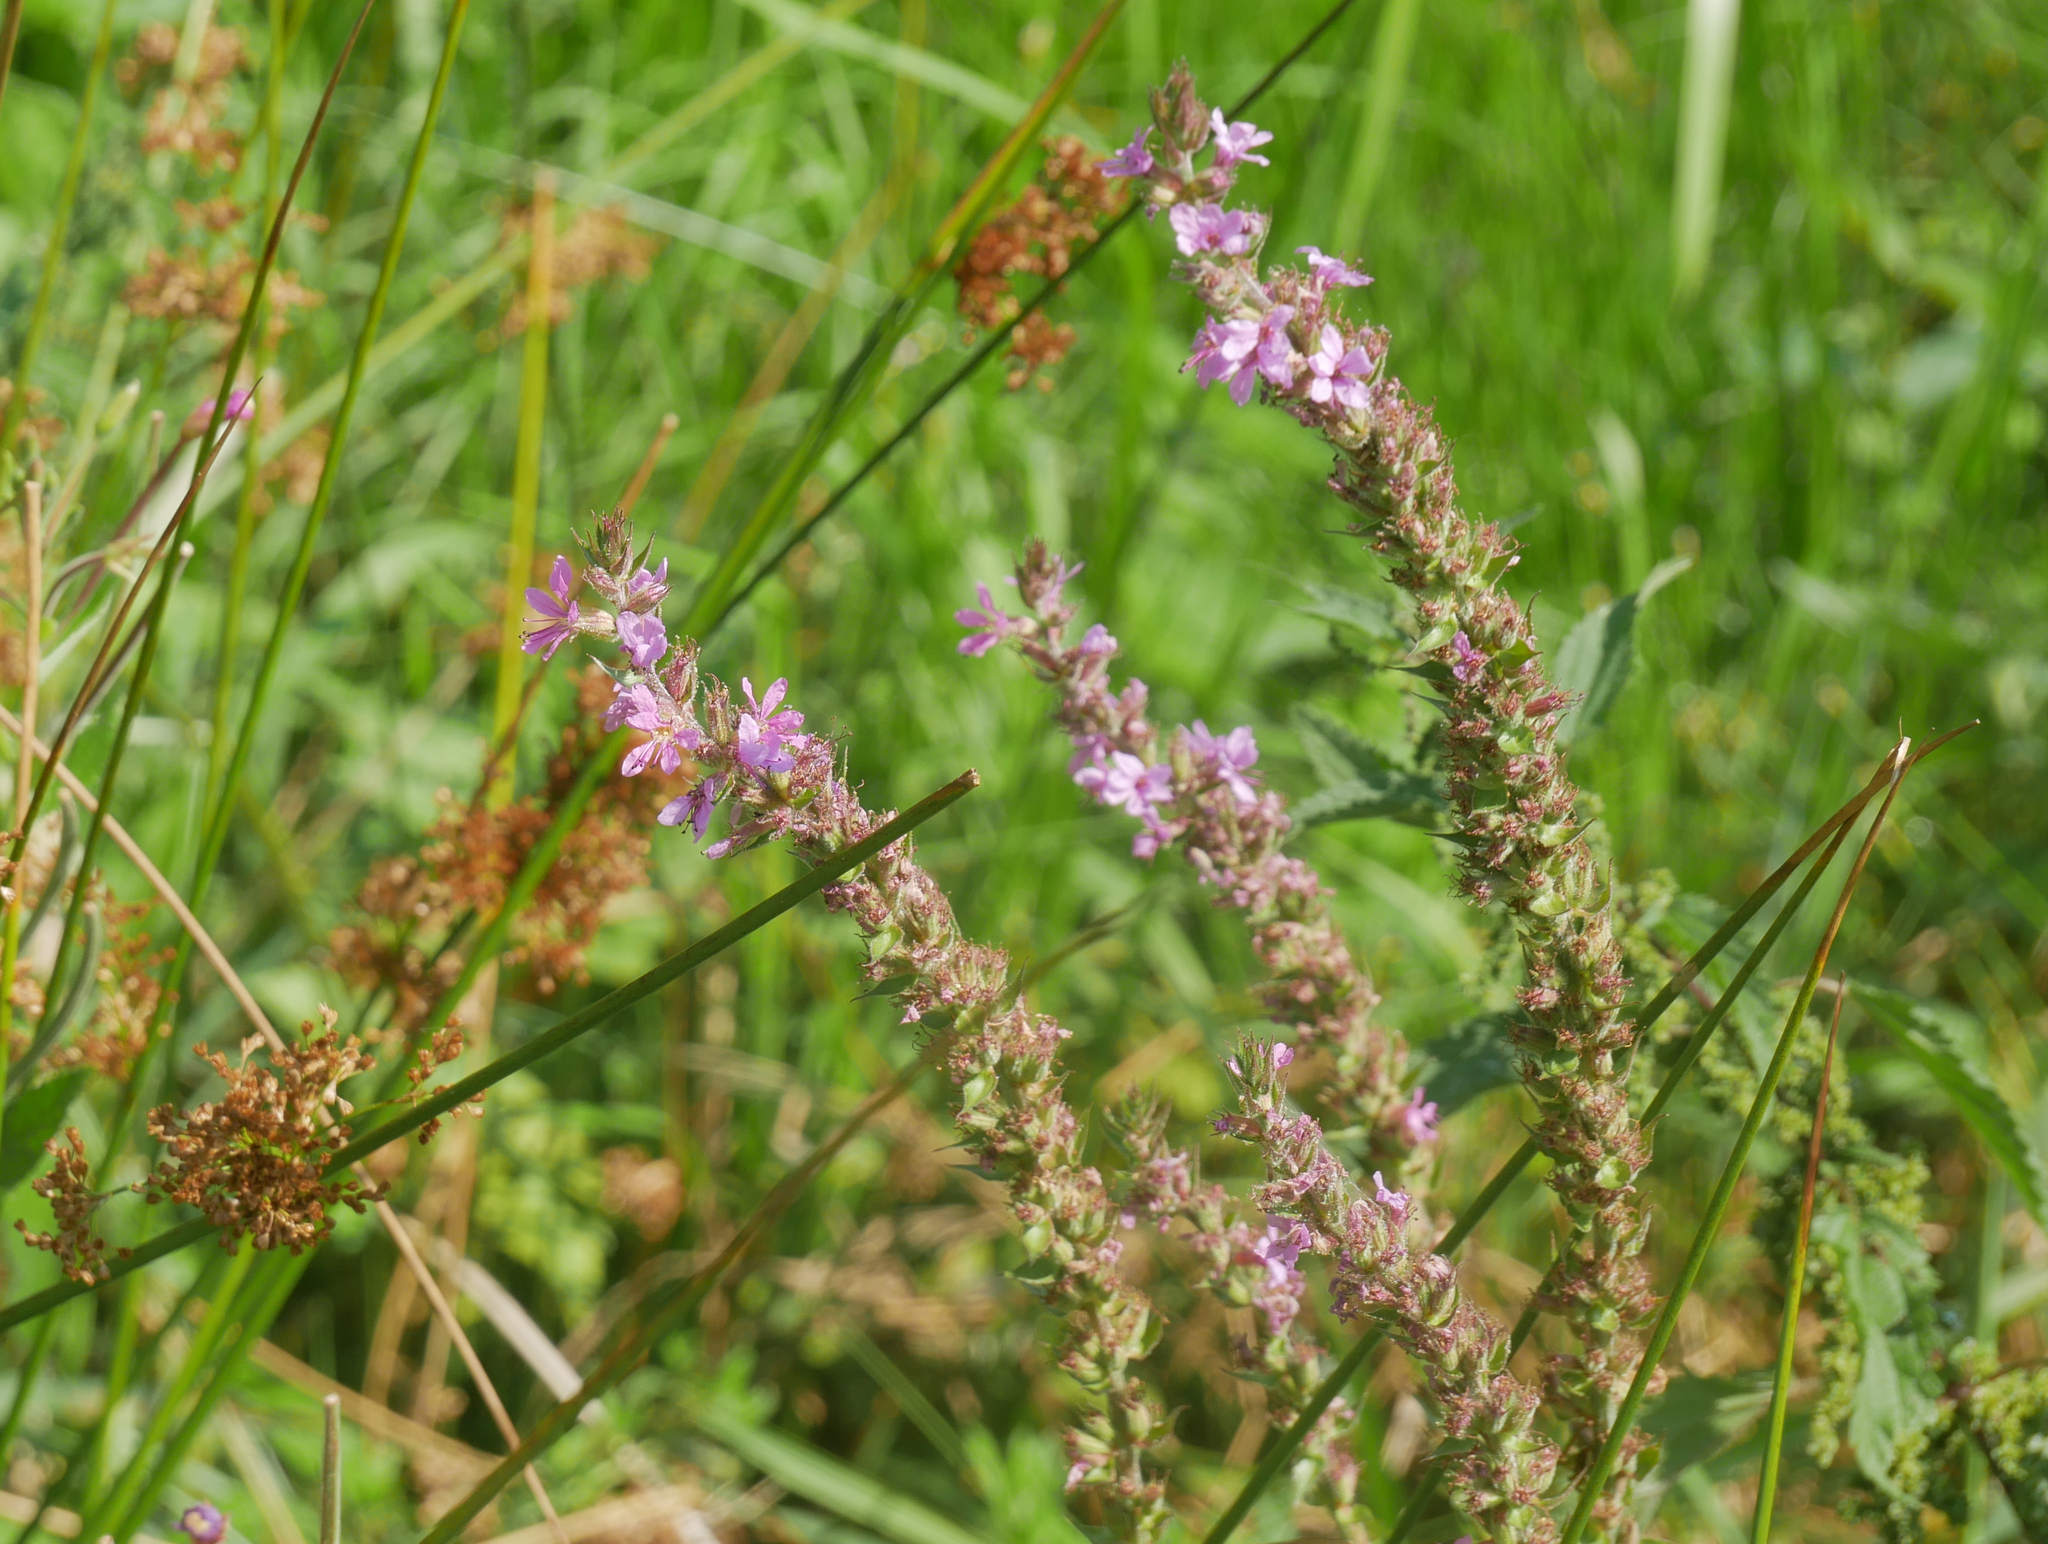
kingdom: Plantae
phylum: Tracheophyta
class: Magnoliopsida
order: Myrtales
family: Lythraceae
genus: Lythrum
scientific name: Lythrum salicaria
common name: Purple loosestrife
